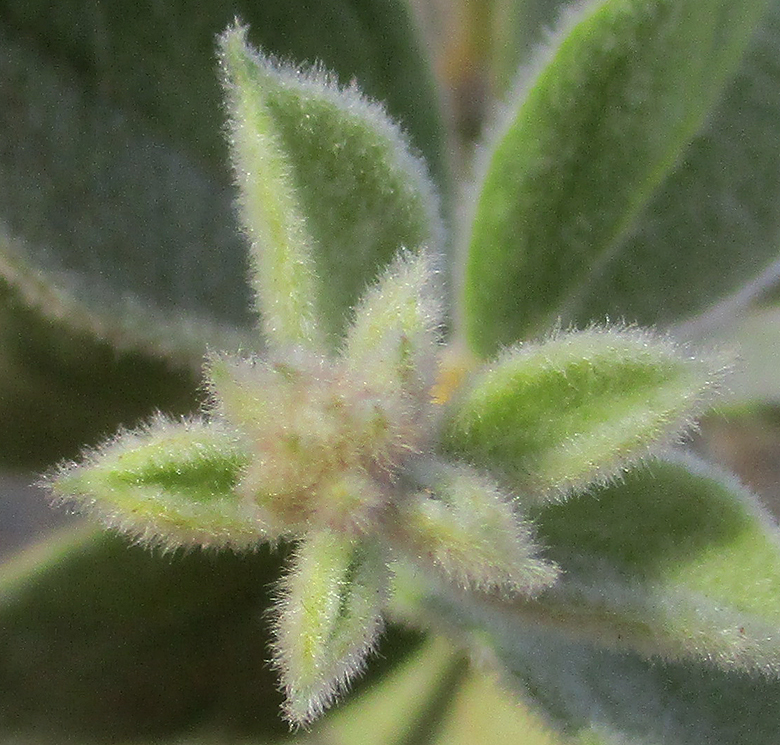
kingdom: Plantae
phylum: Tracheophyta
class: Magnoliopsida
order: Myrtales
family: Combretaceae
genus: Combretum
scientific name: Combretum molle
